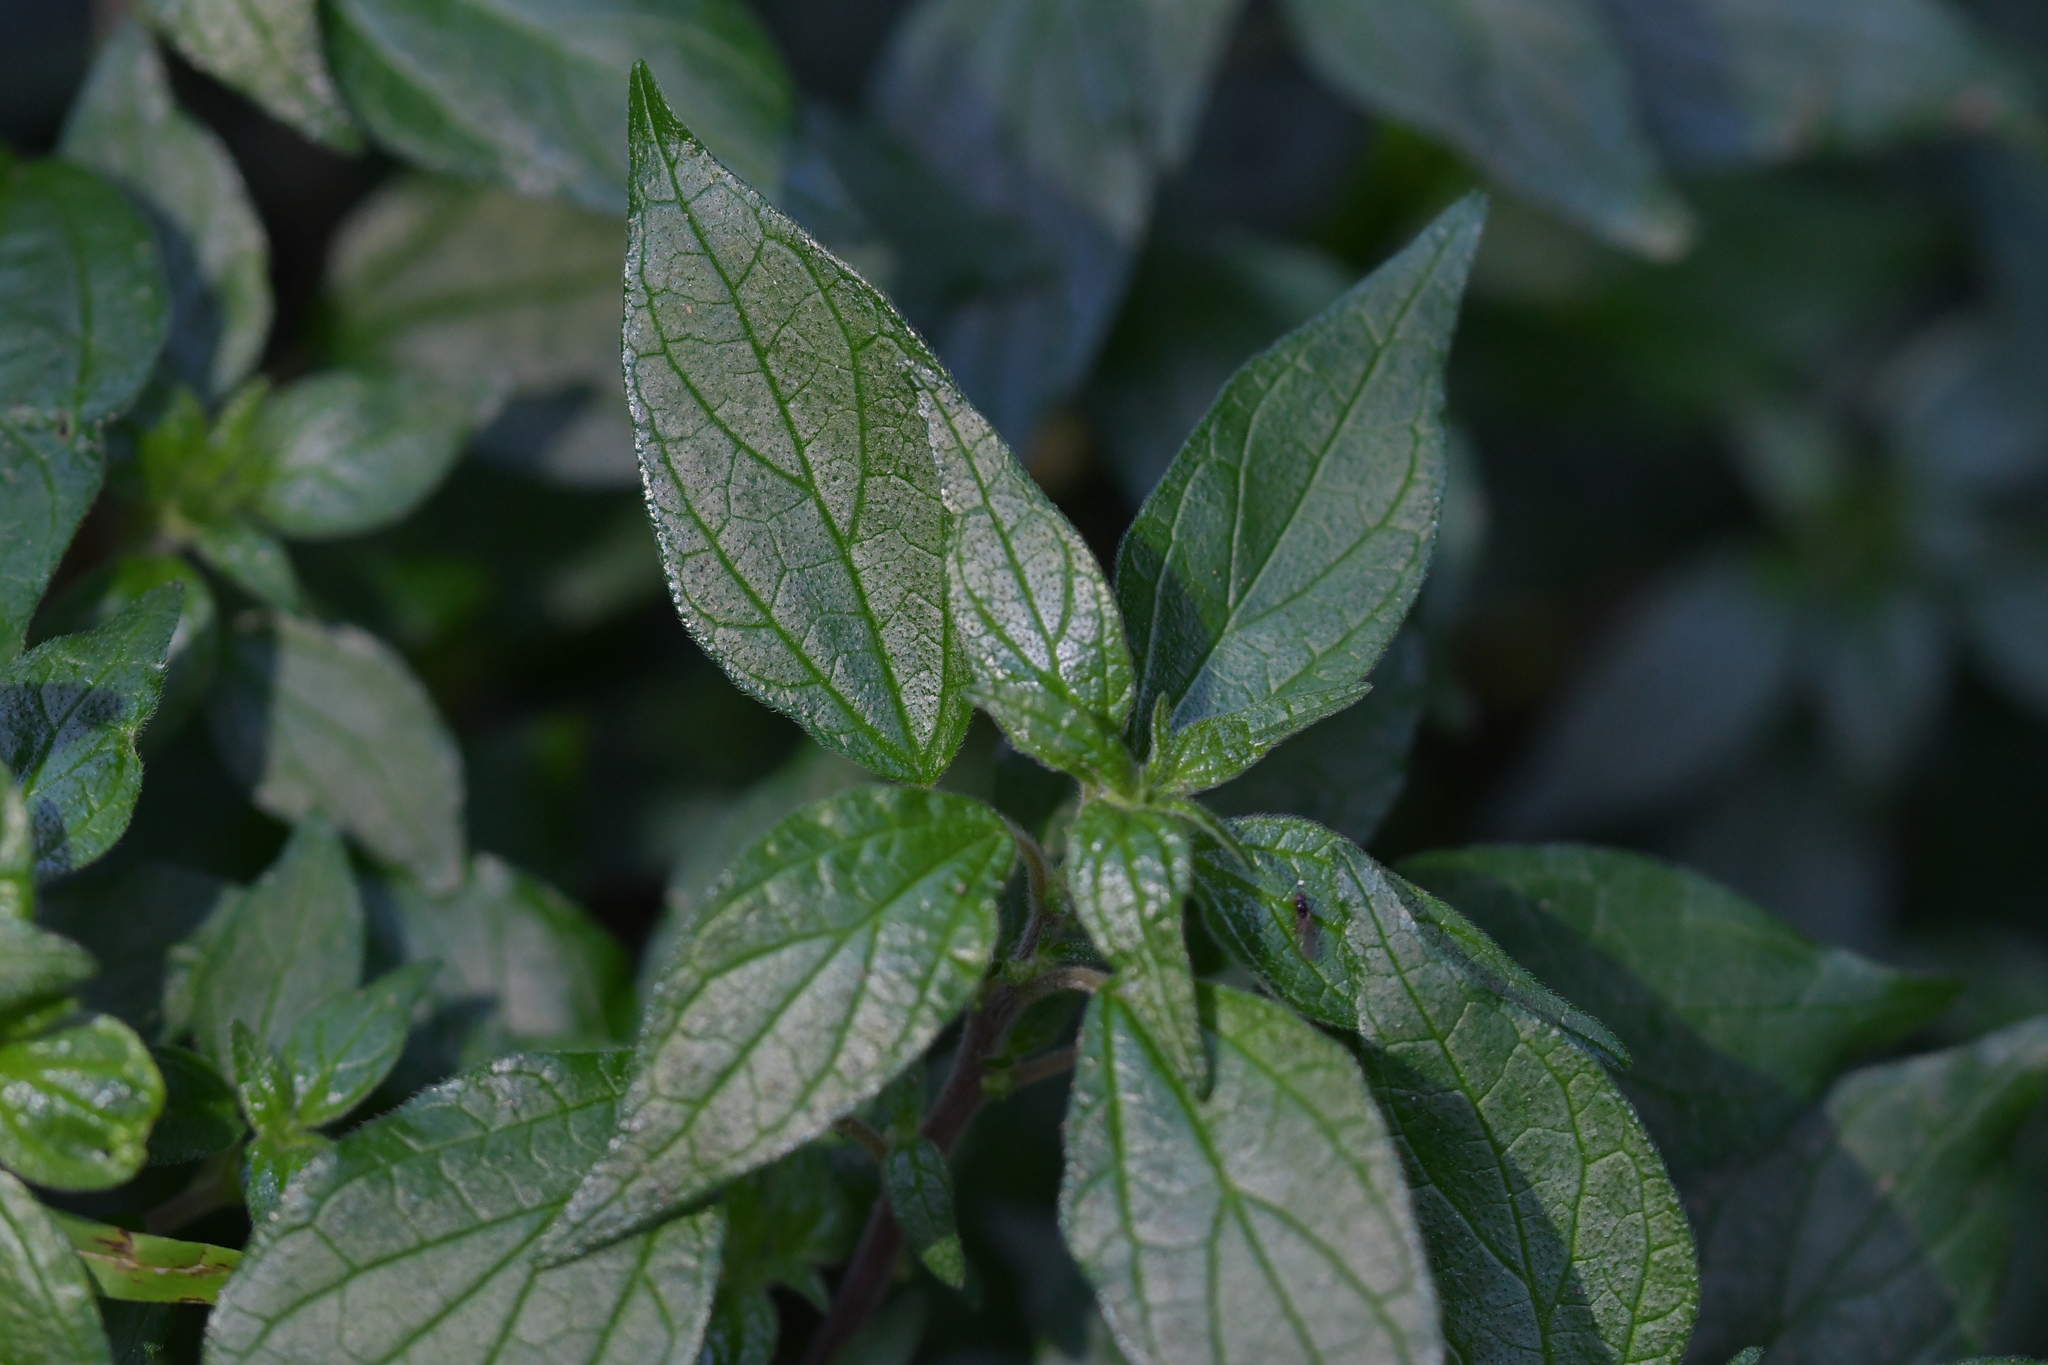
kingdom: Plantae
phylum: Tracheophyta
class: Magnoliopsida
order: Rosales
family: Urticaceae
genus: Parietaria
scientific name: Parietaria judaica
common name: Pellitory-of-the-wall
